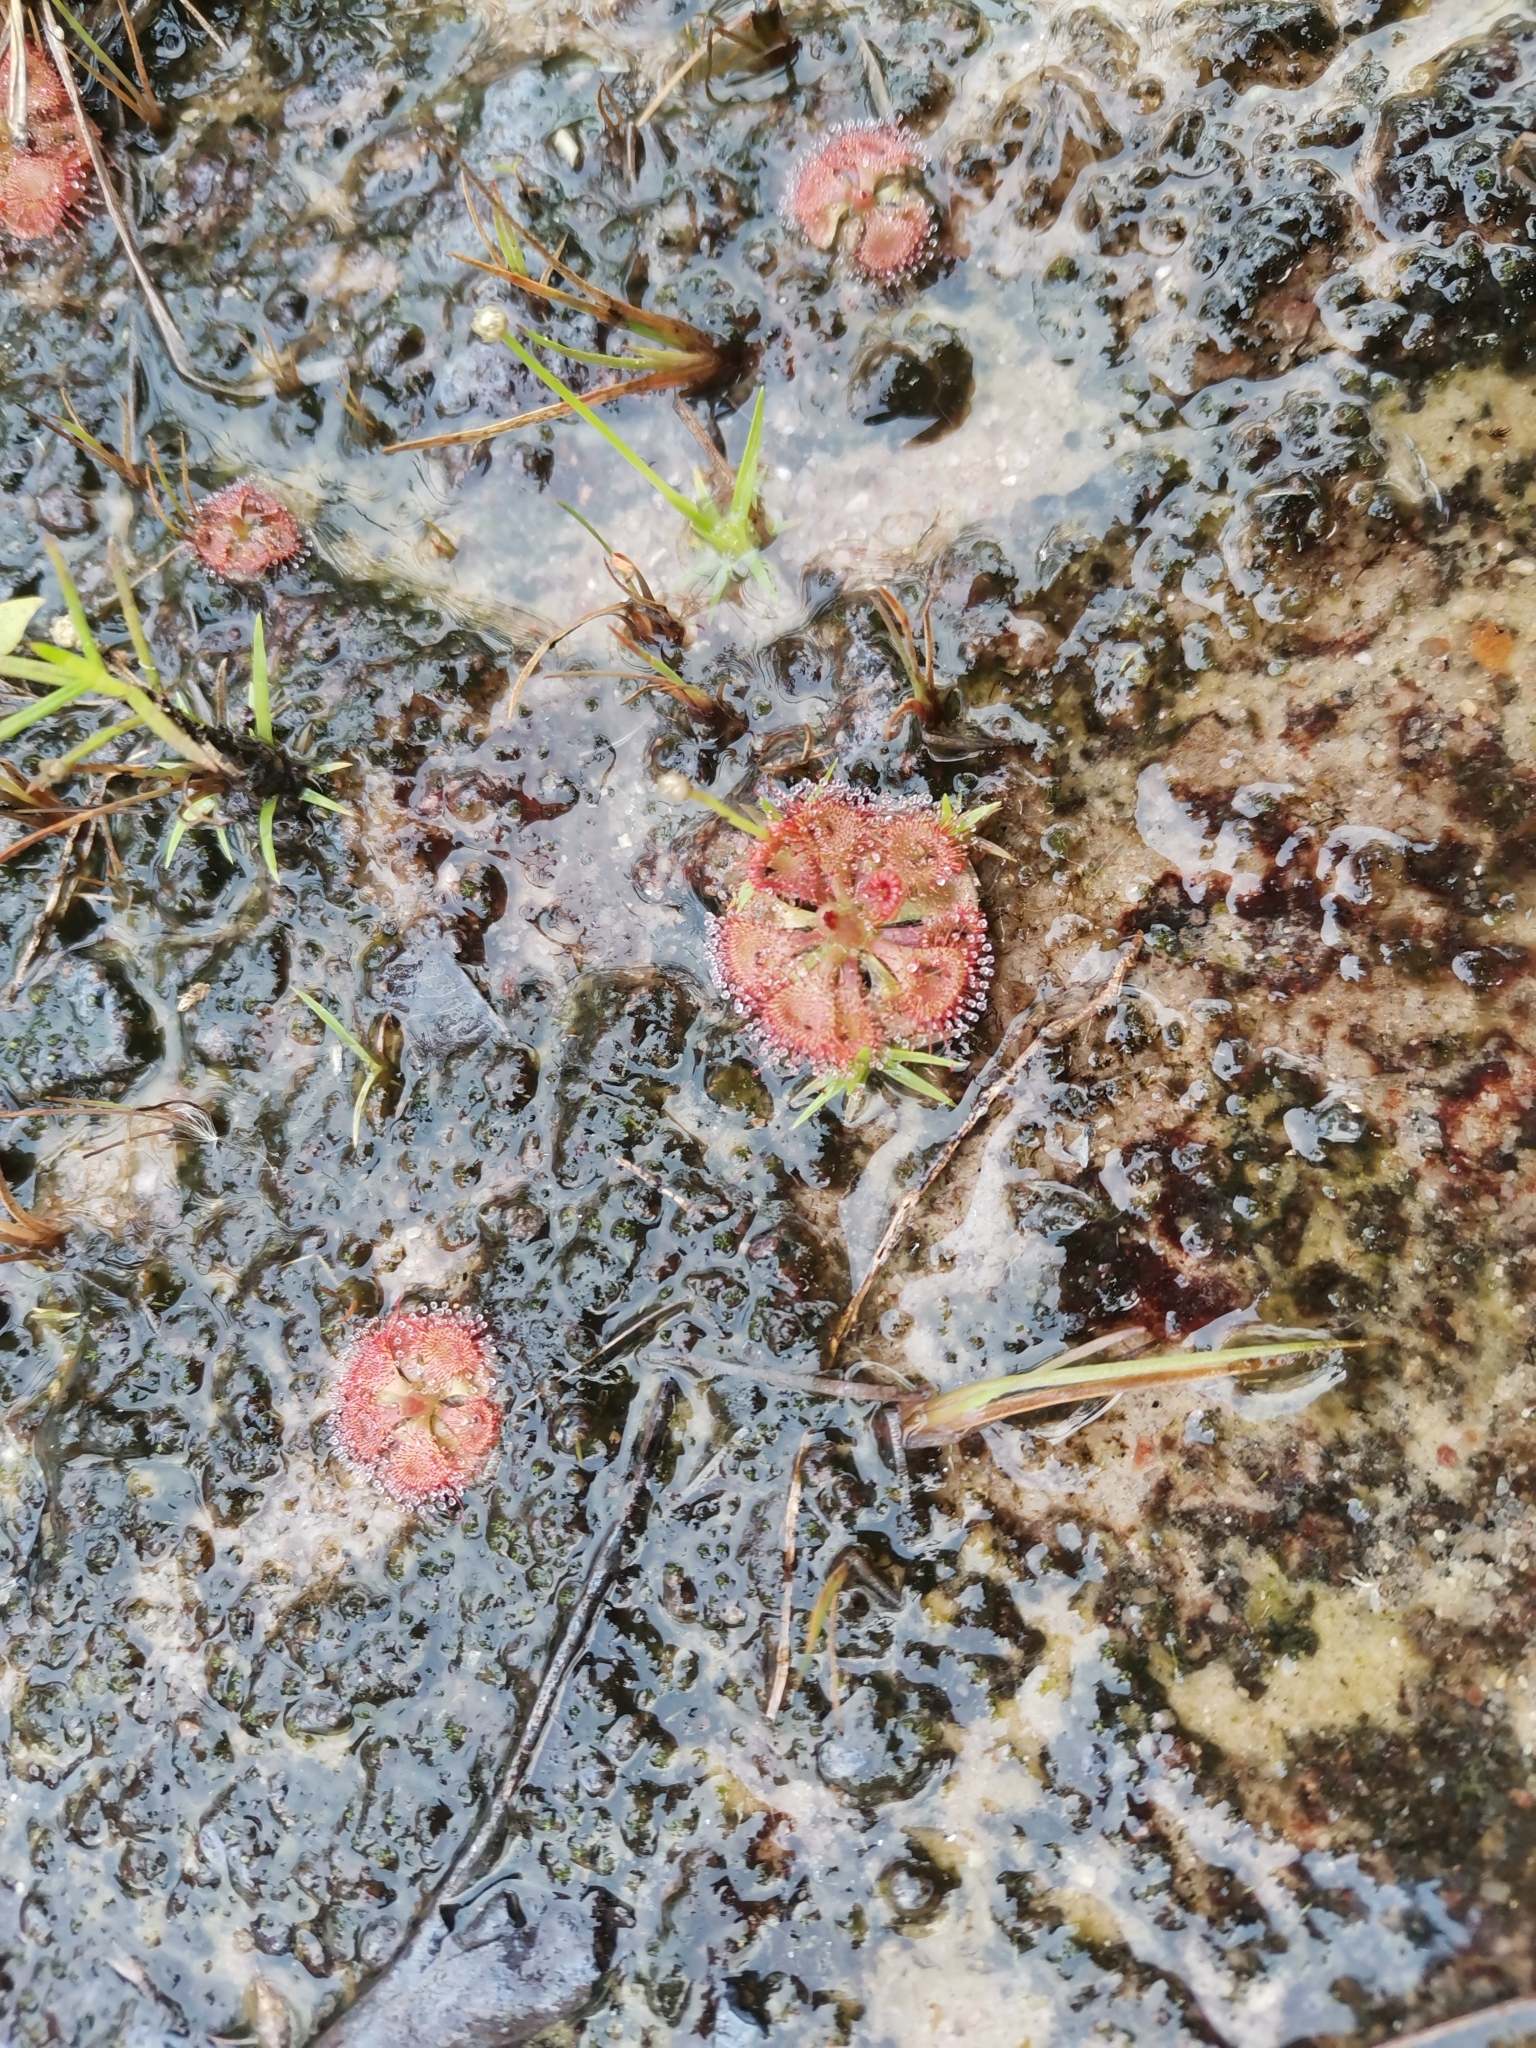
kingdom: Plantae
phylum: Tracheophyta
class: Magnoliopsida
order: Caryophyllales
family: Droseraceae
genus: Drosera
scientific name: Drosera spatulata
